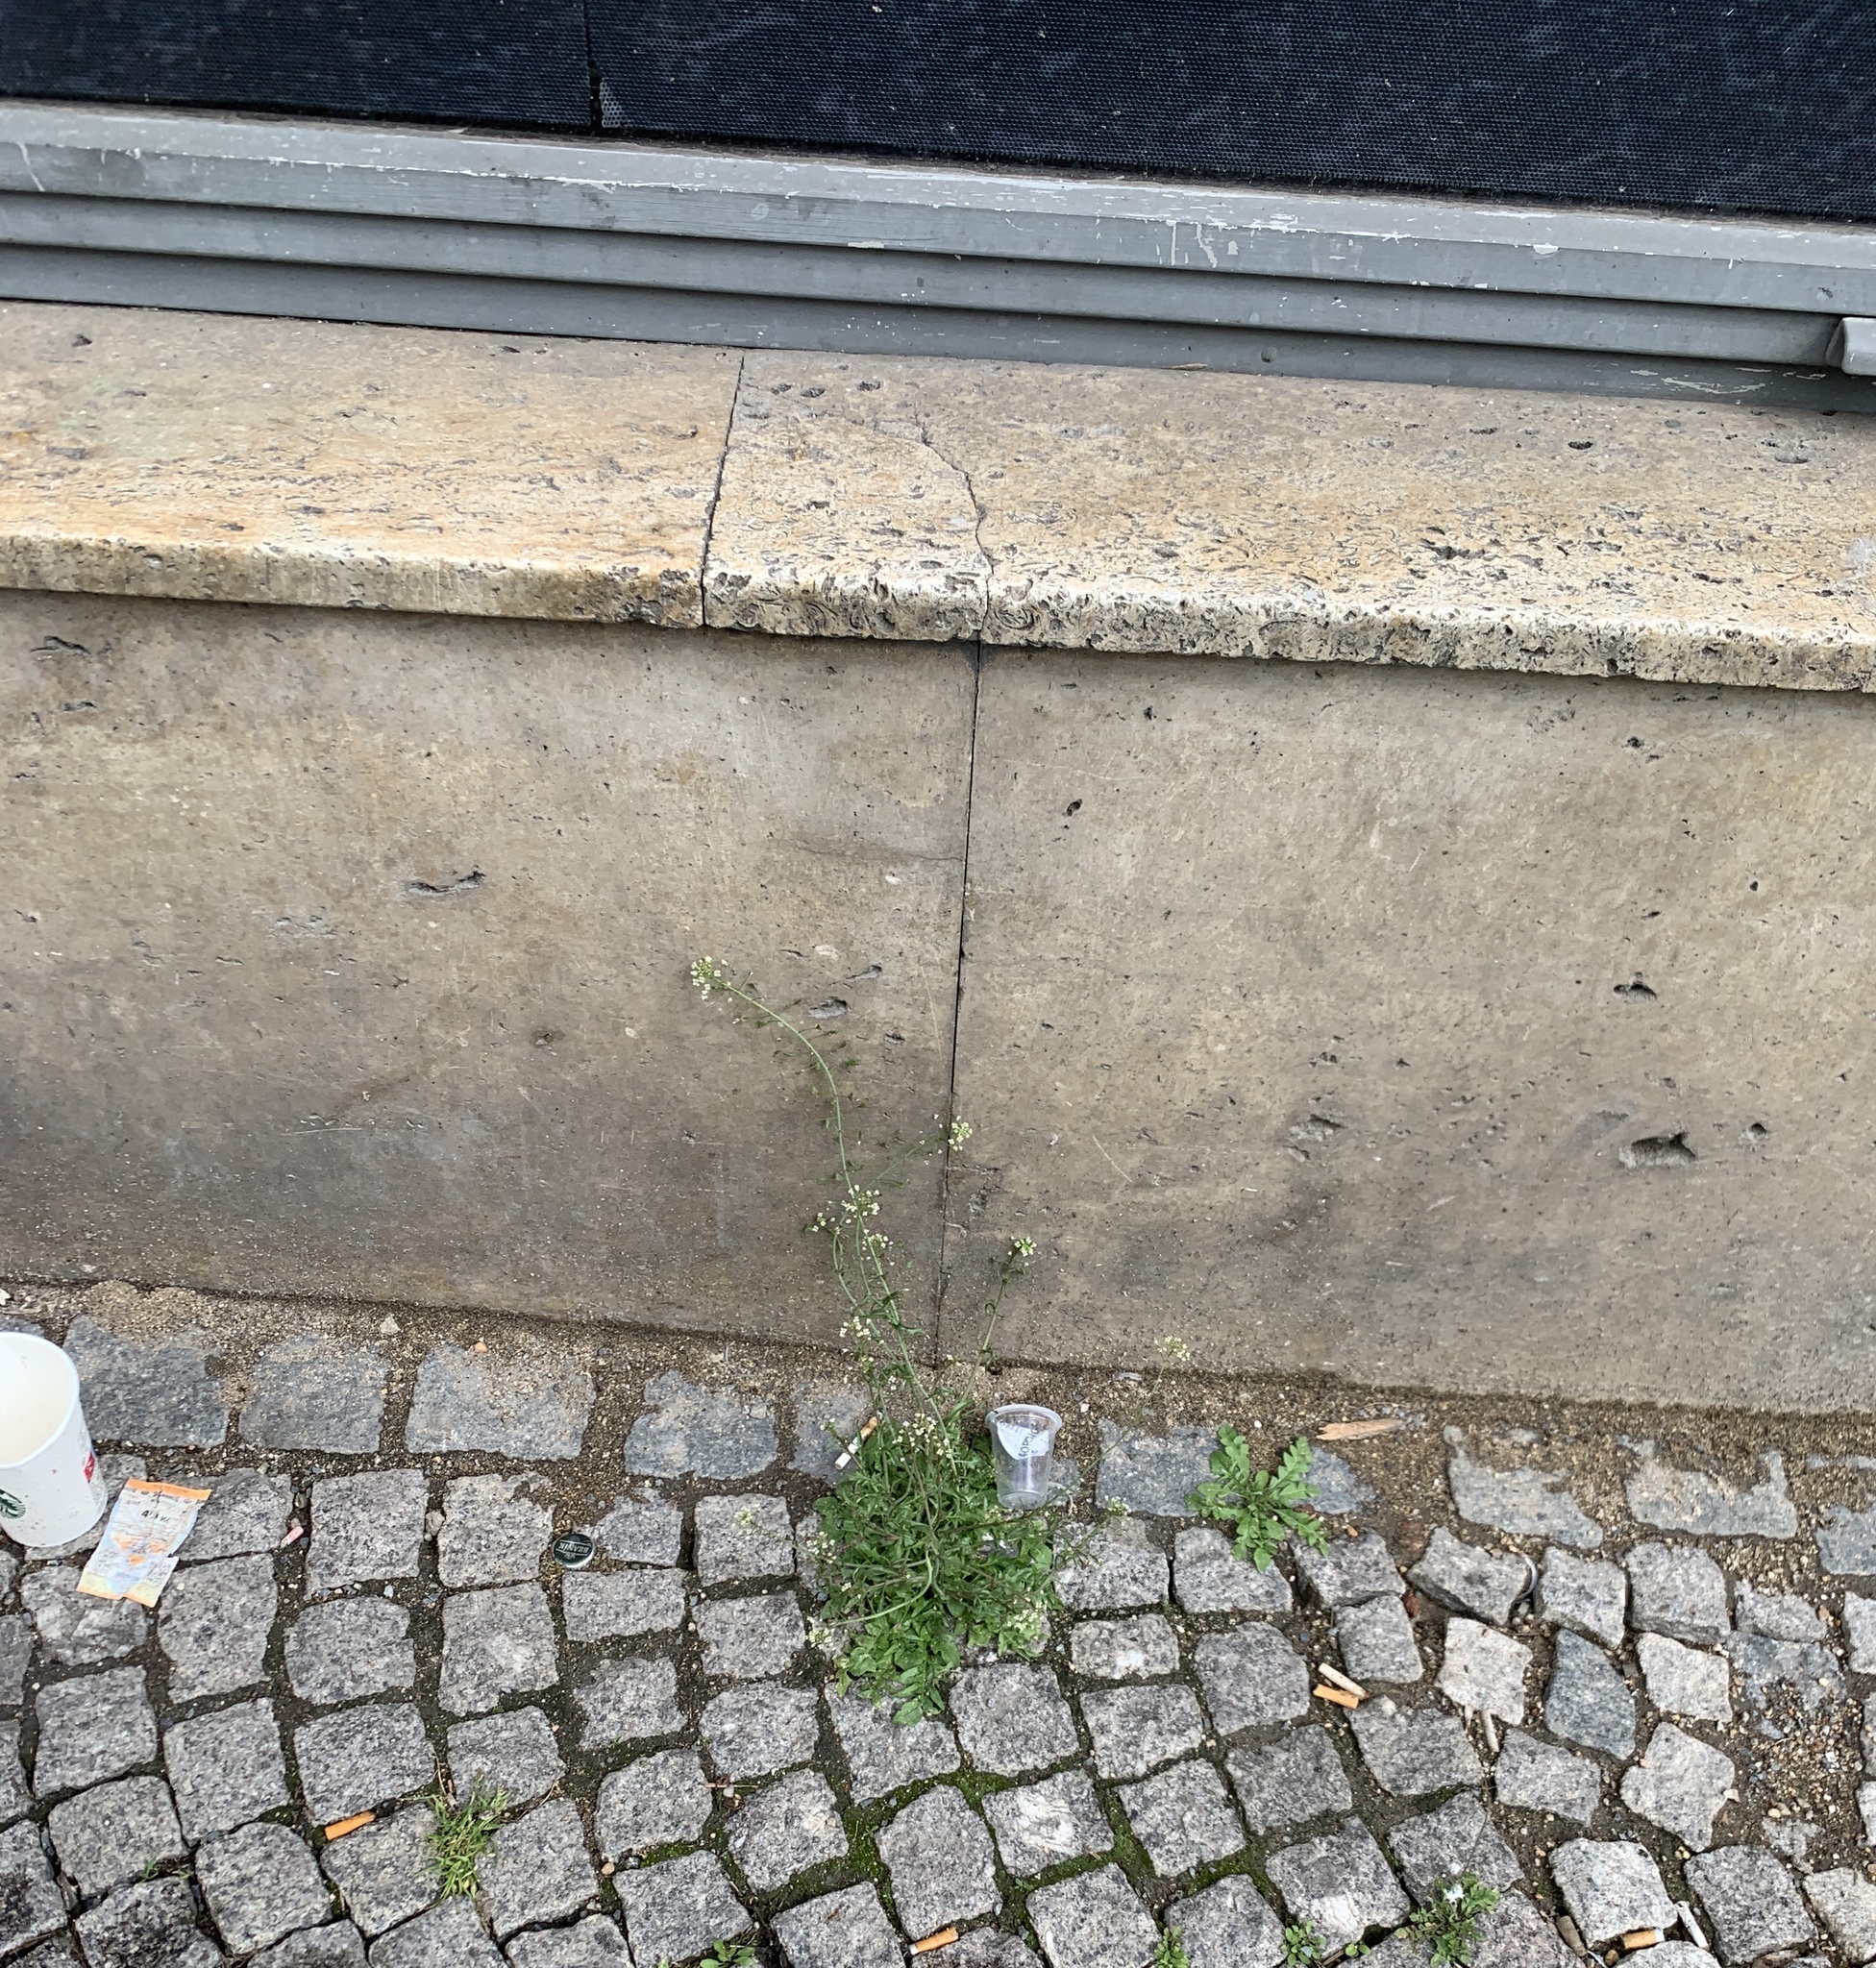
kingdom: Plantae
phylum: Tracheophyta
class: Magnoliopsida
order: Brassicales
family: Brassicaceae
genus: Capsella
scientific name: Capsella bursa-pastoris
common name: Shepherd's purse
